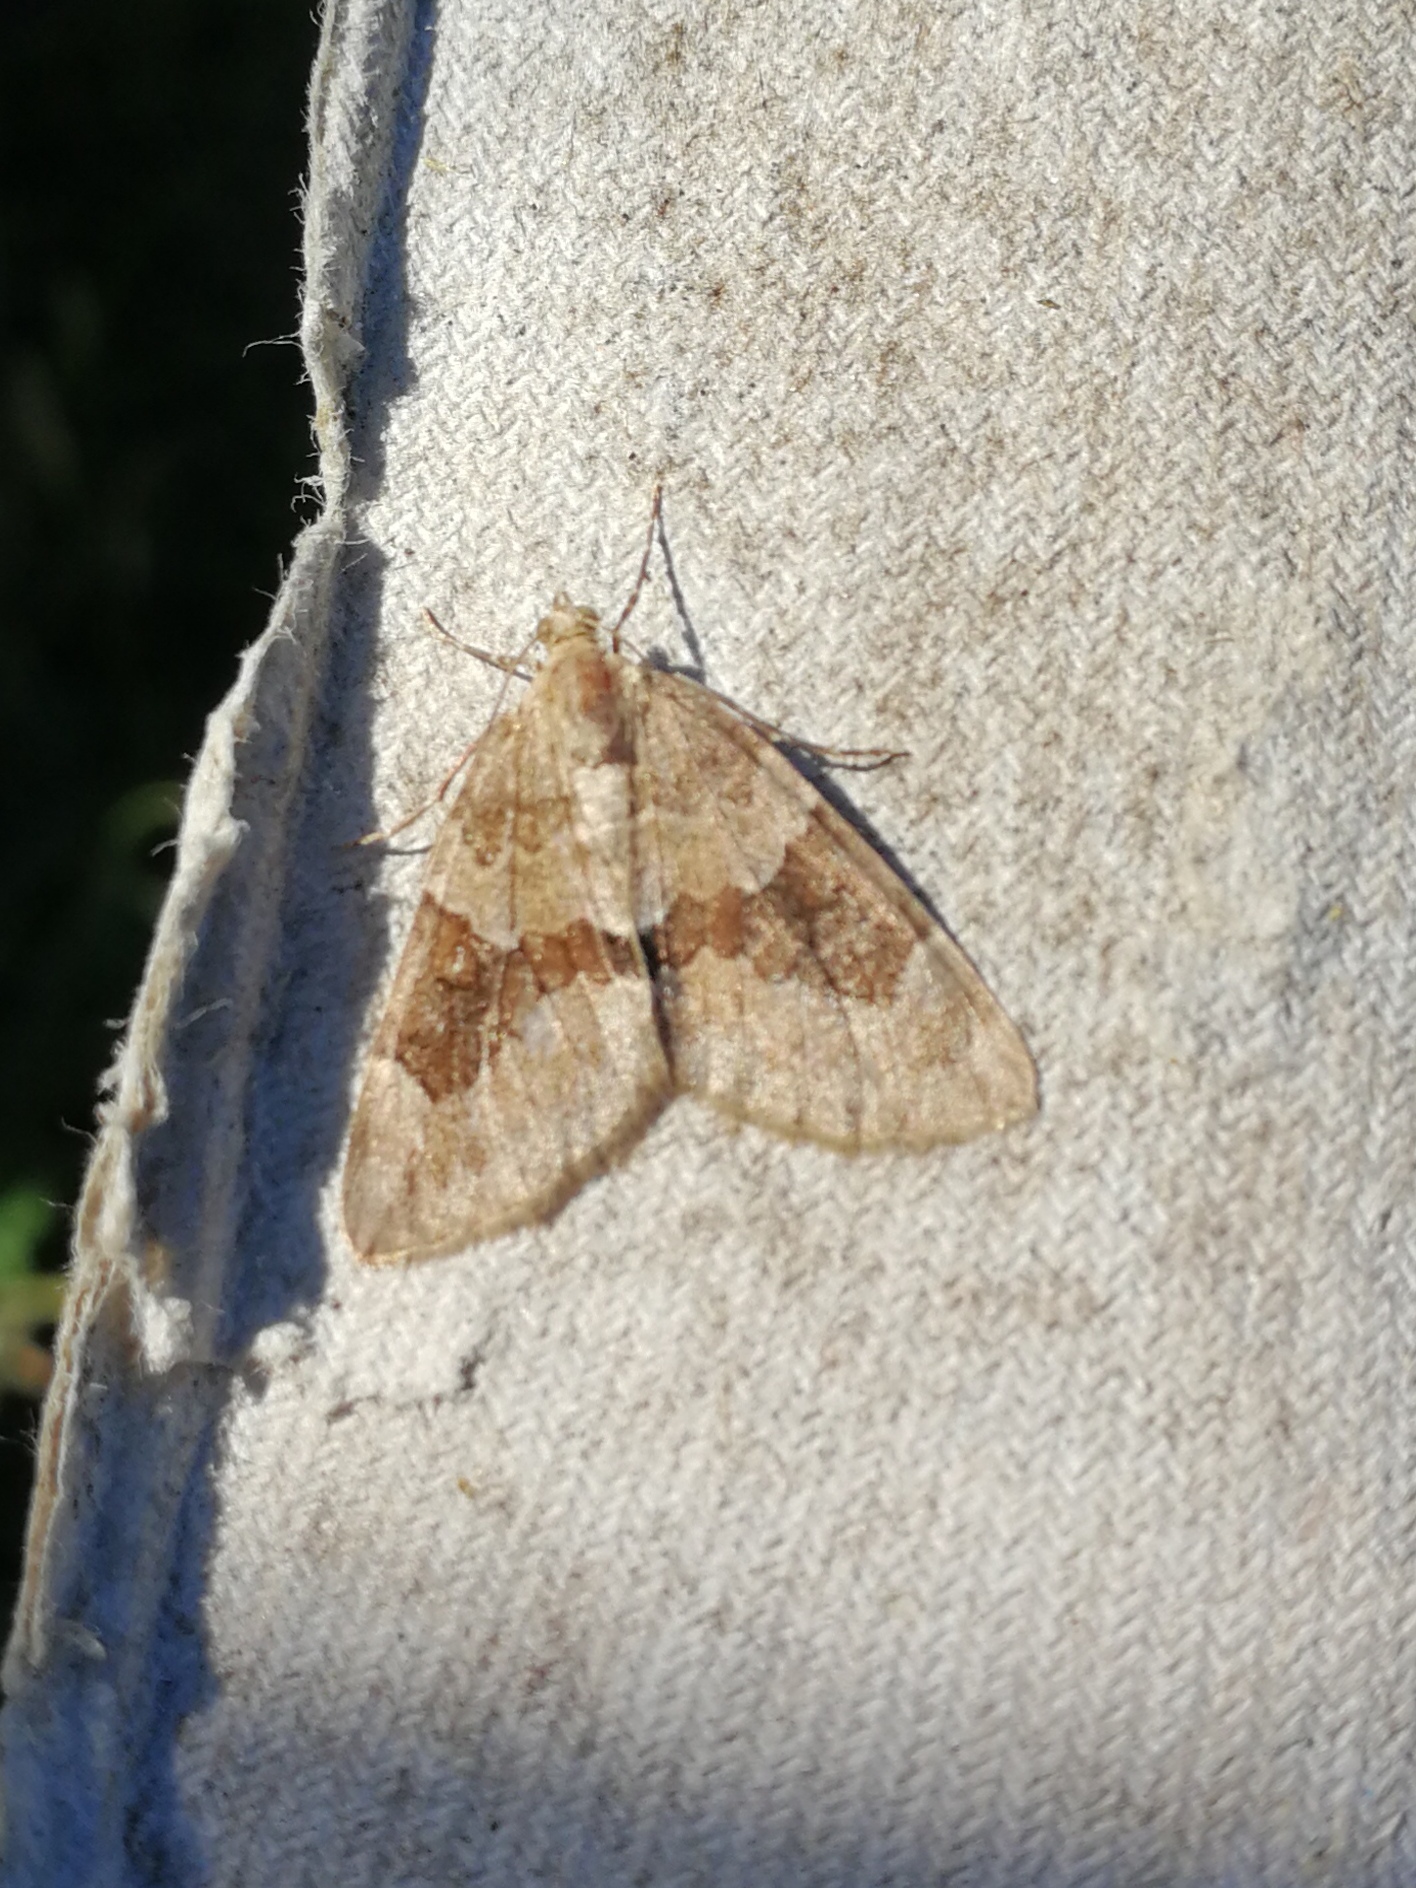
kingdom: Animalia
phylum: Arthropoda
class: Insecta
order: Lepidoptera
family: Geometridae
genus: Thera
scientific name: Thera obeliscata
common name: Grey pine carpet
